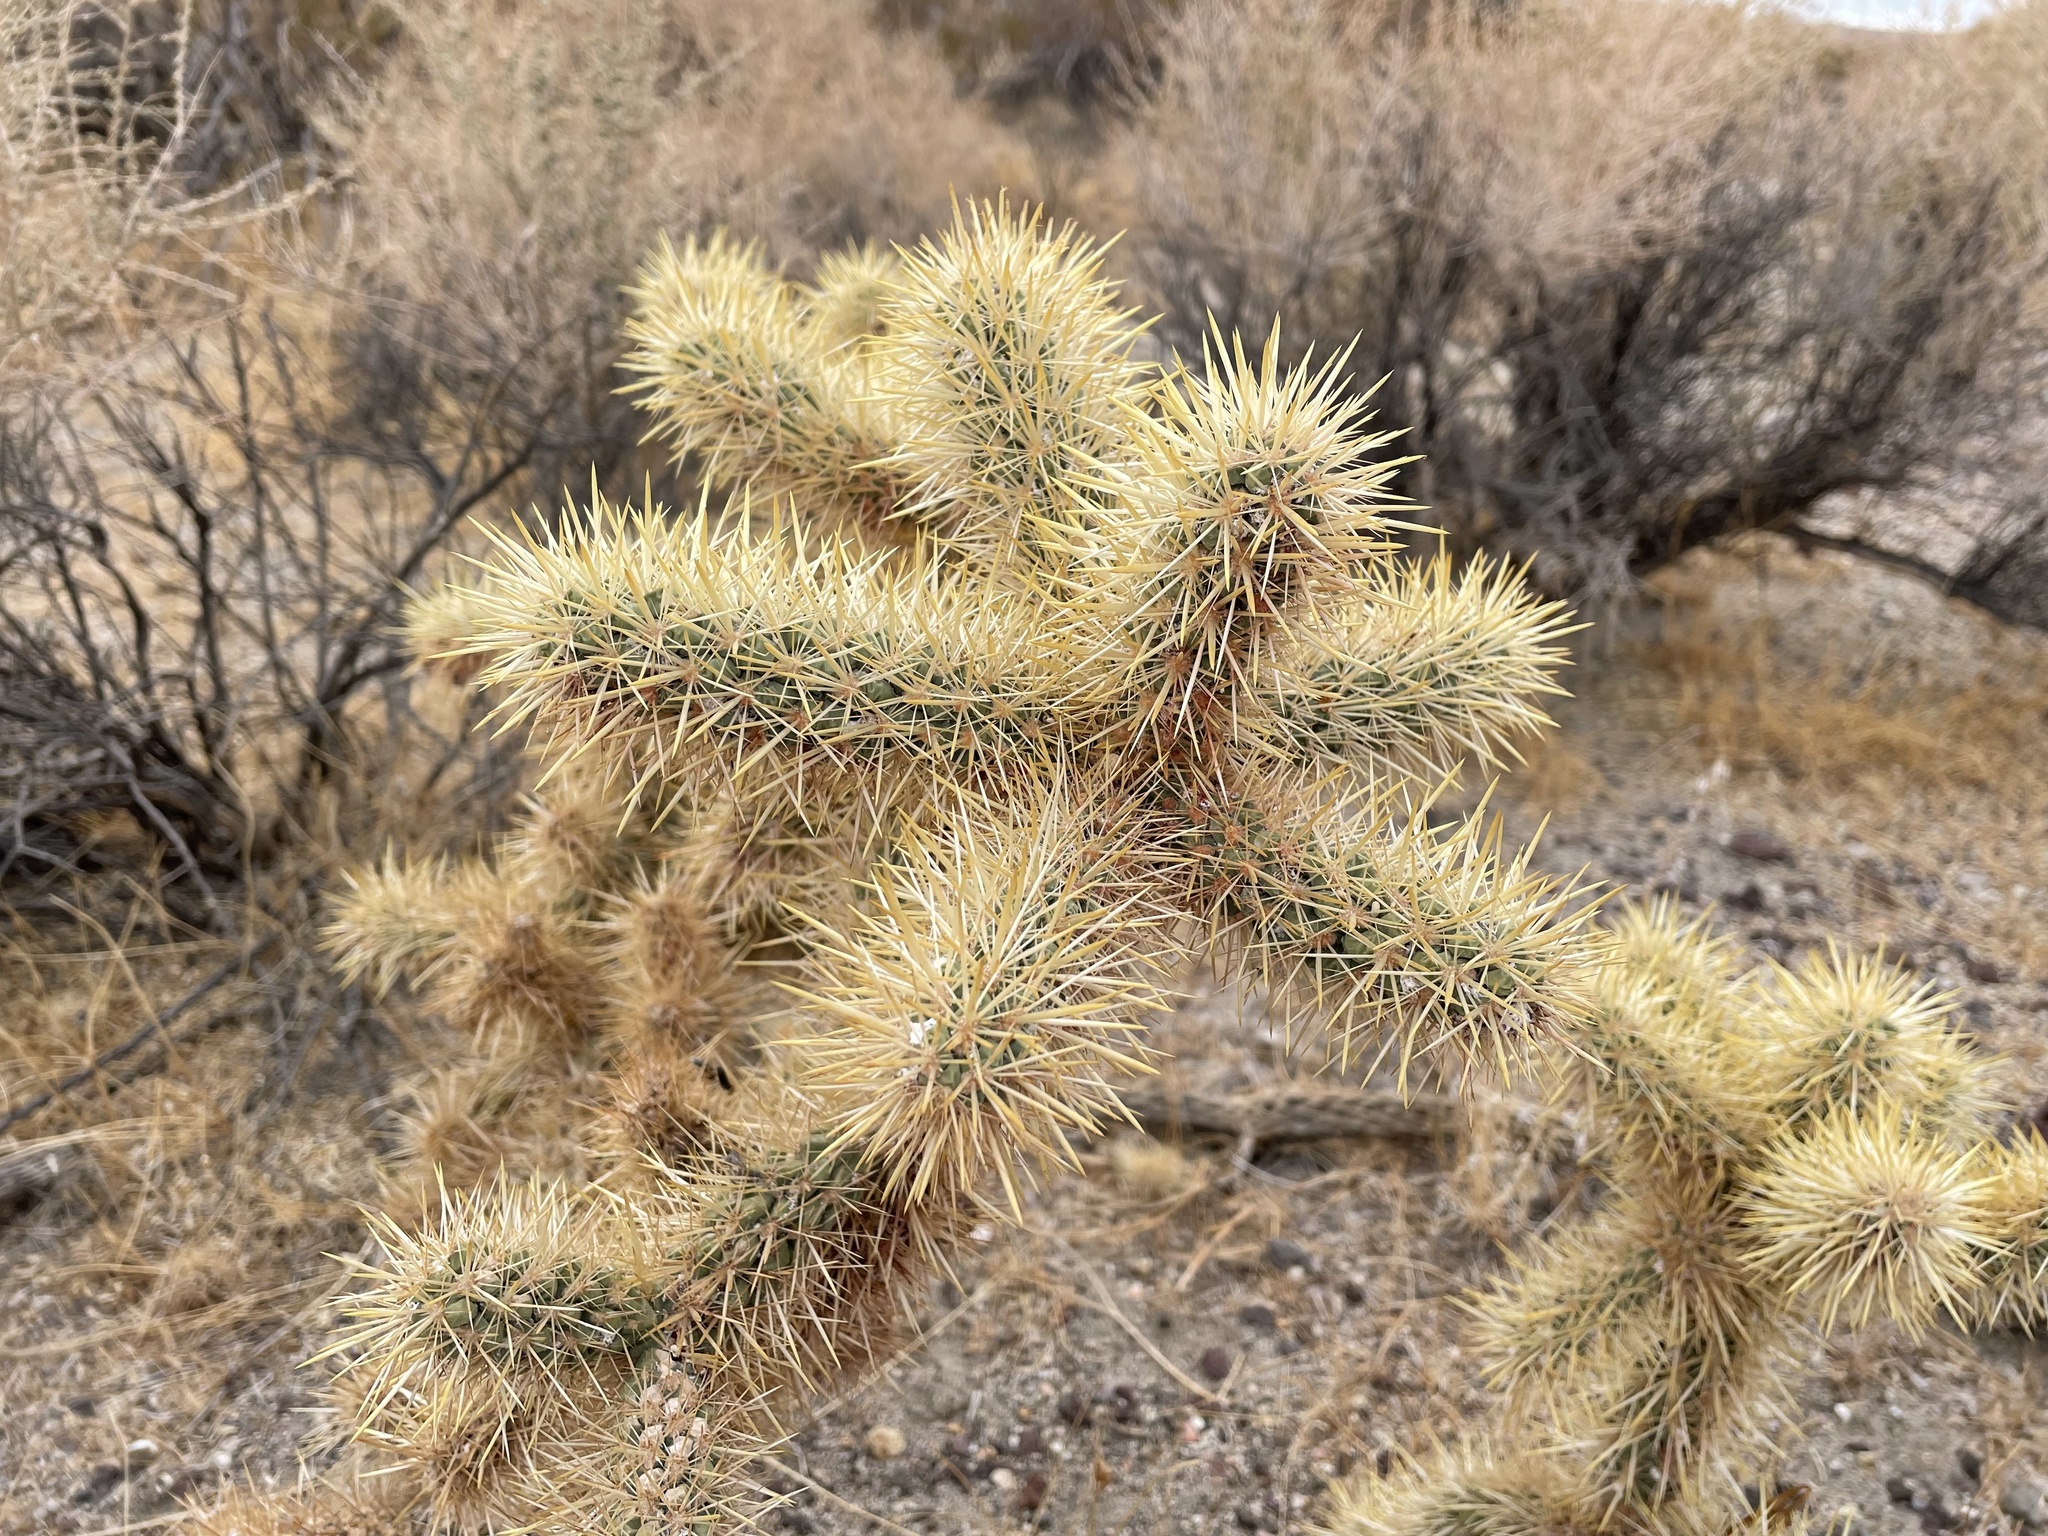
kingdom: Plantae
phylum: Tracheophyta
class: Magnoliopsida
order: Caryophyllales
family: Cactaceae
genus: Cylindropuntia
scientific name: Cylindropuntia echinocarpa
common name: Ground cholla
